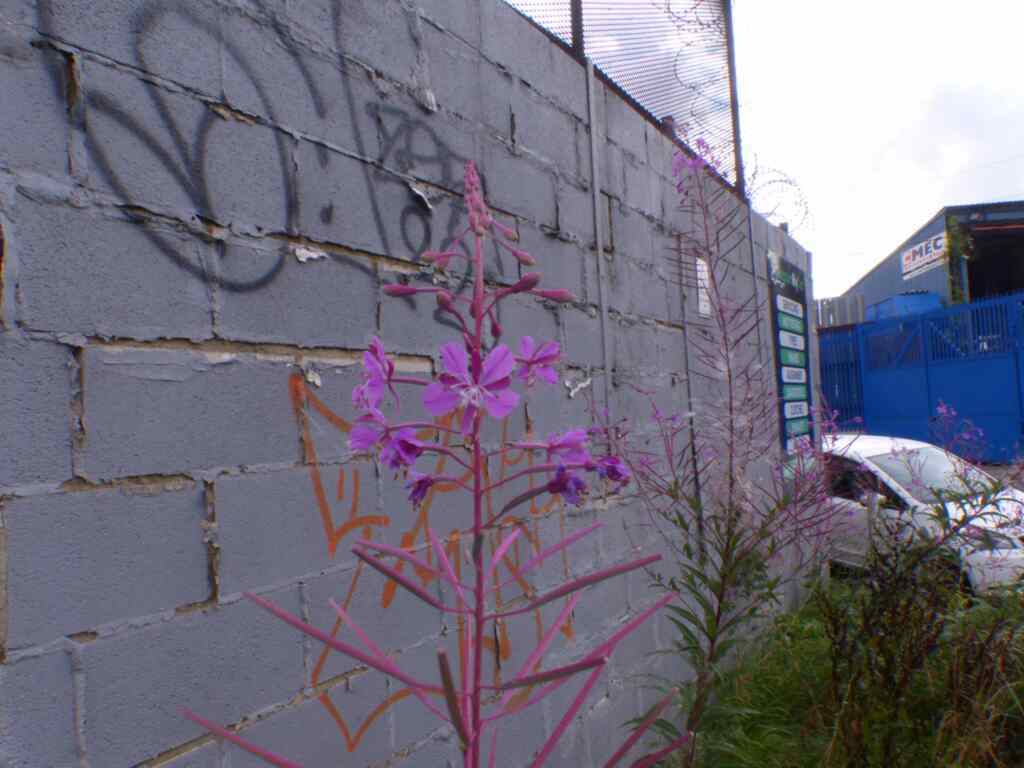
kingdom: Plantae
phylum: Tracheophyta
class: Magnoliopsida
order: Myrtales
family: Onagraceae
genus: Chamaenerion
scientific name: Chamaenerion angustifolium
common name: Fireweed
